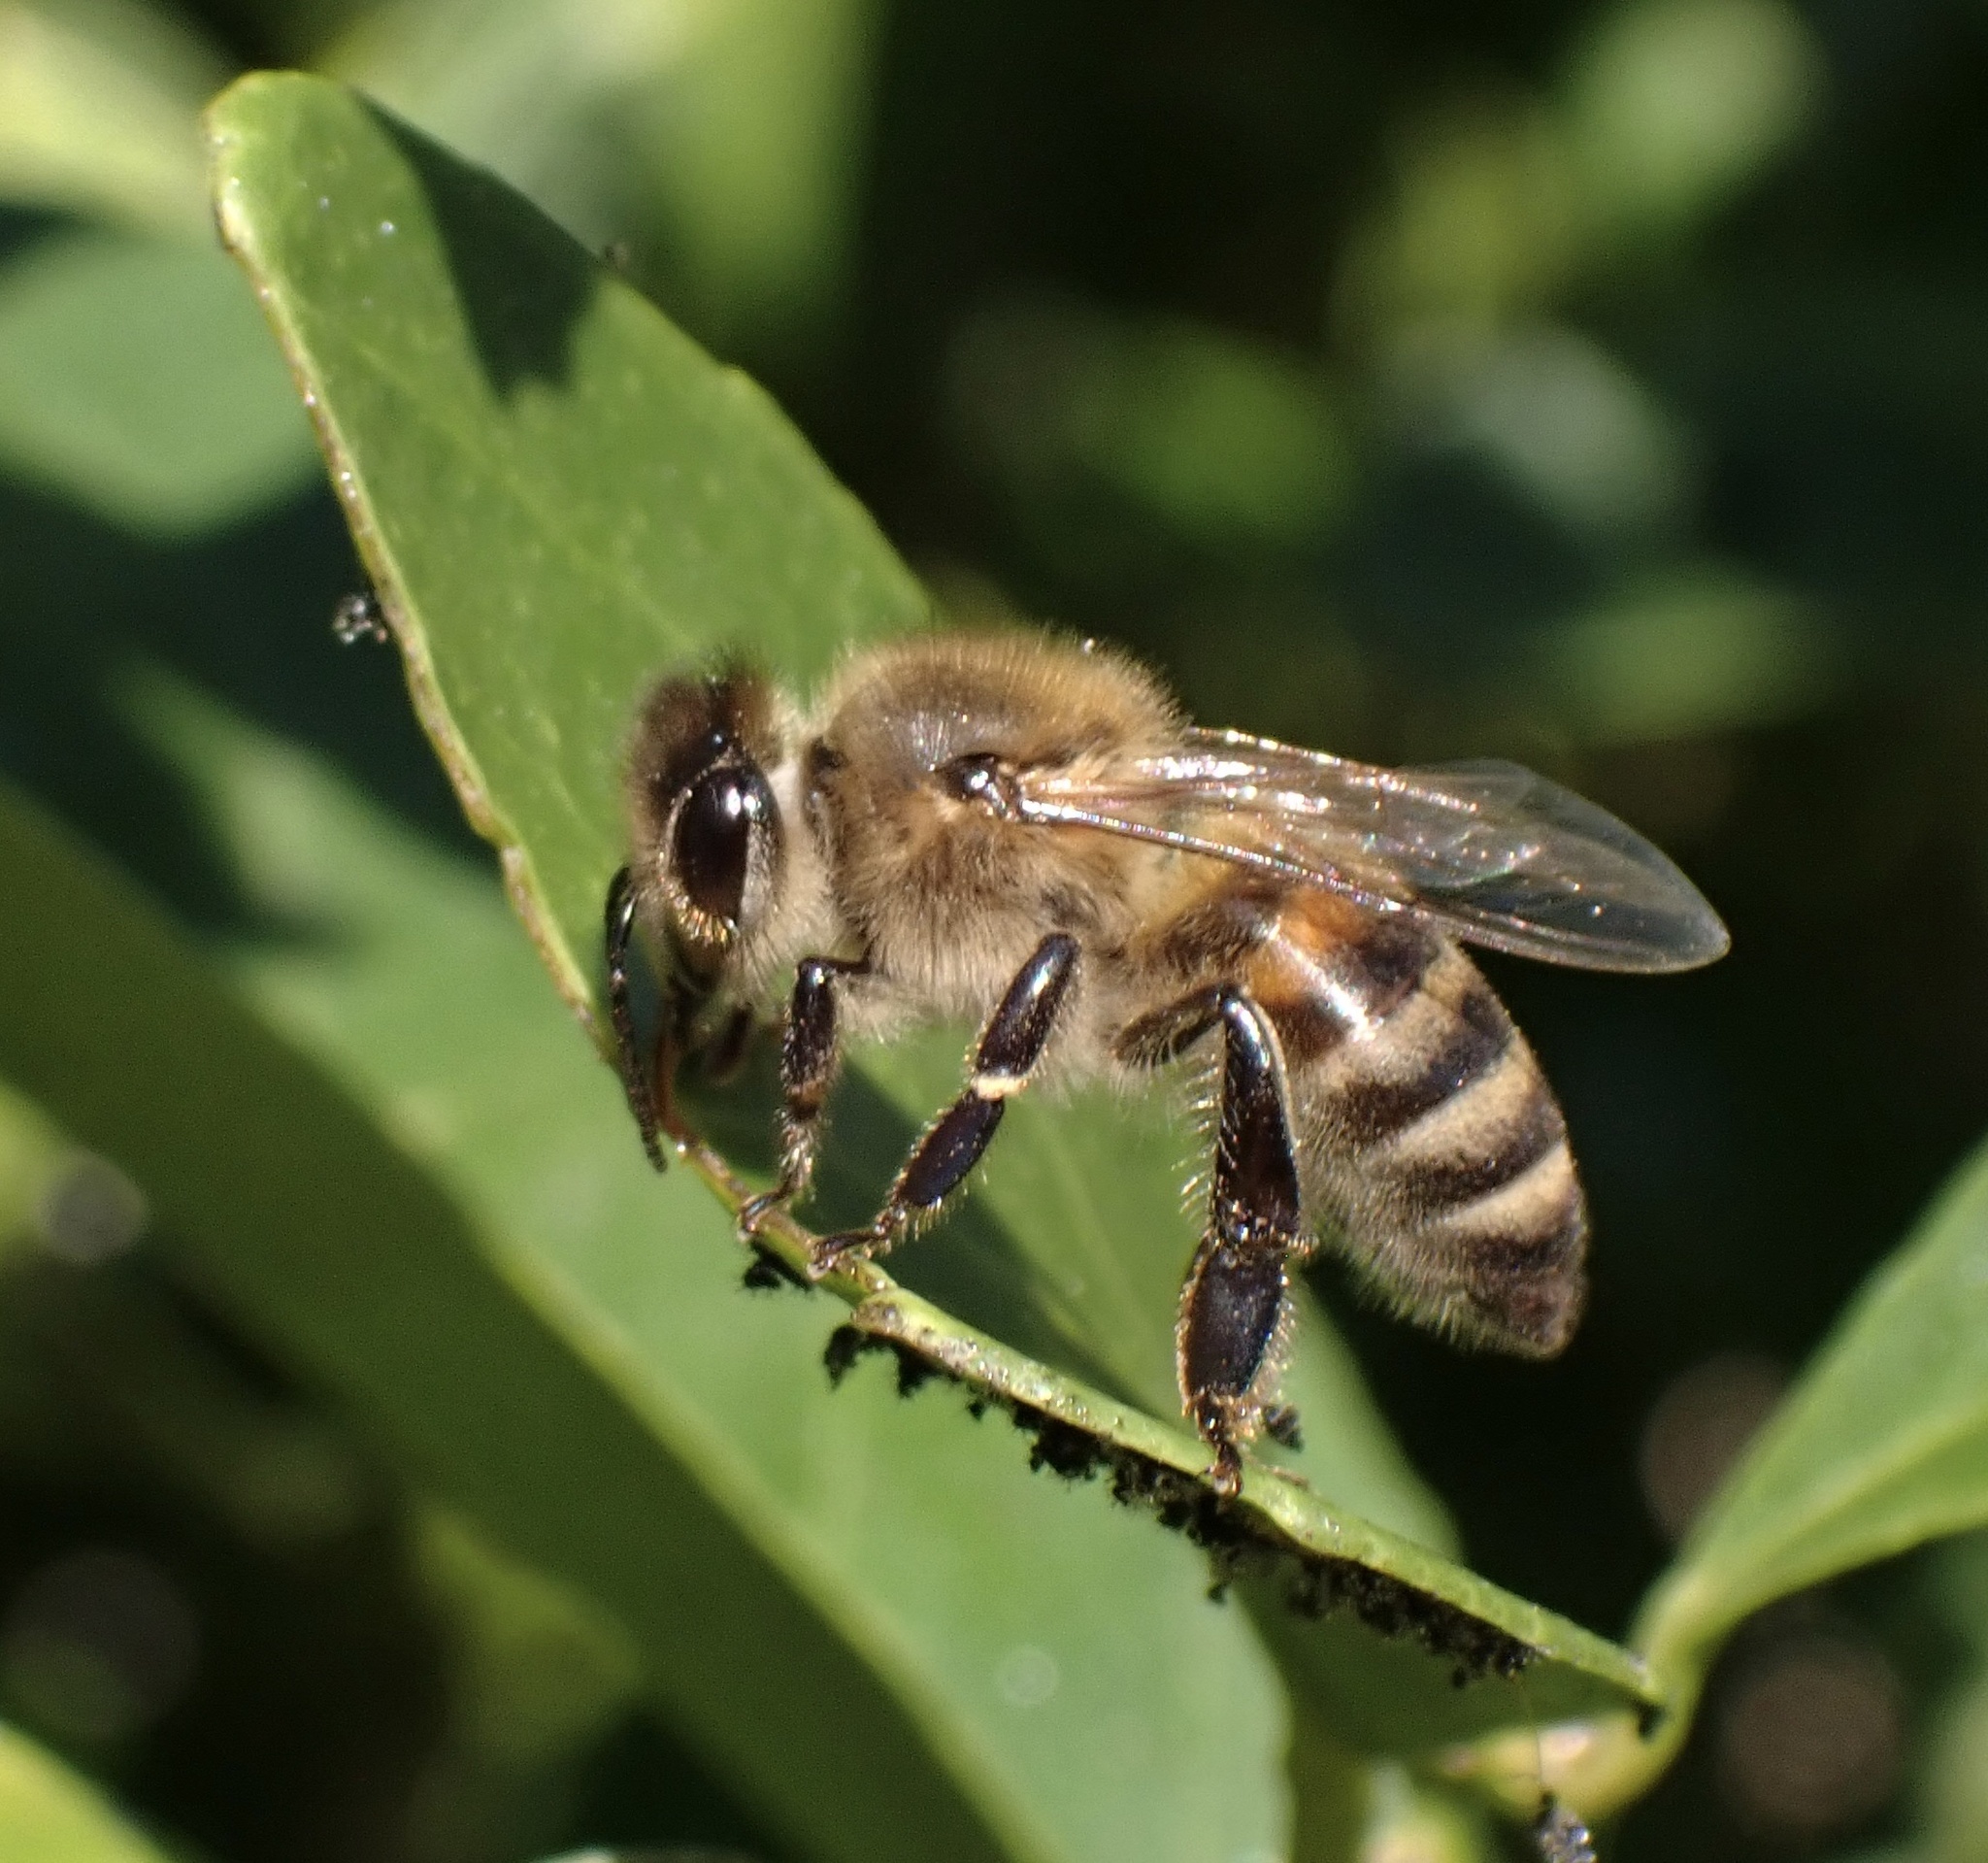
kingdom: Animalia
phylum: Arthropoda
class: Insecta
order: Hymenoptera
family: Apidae
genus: Apis
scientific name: Apis mellifera
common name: Honey bee
